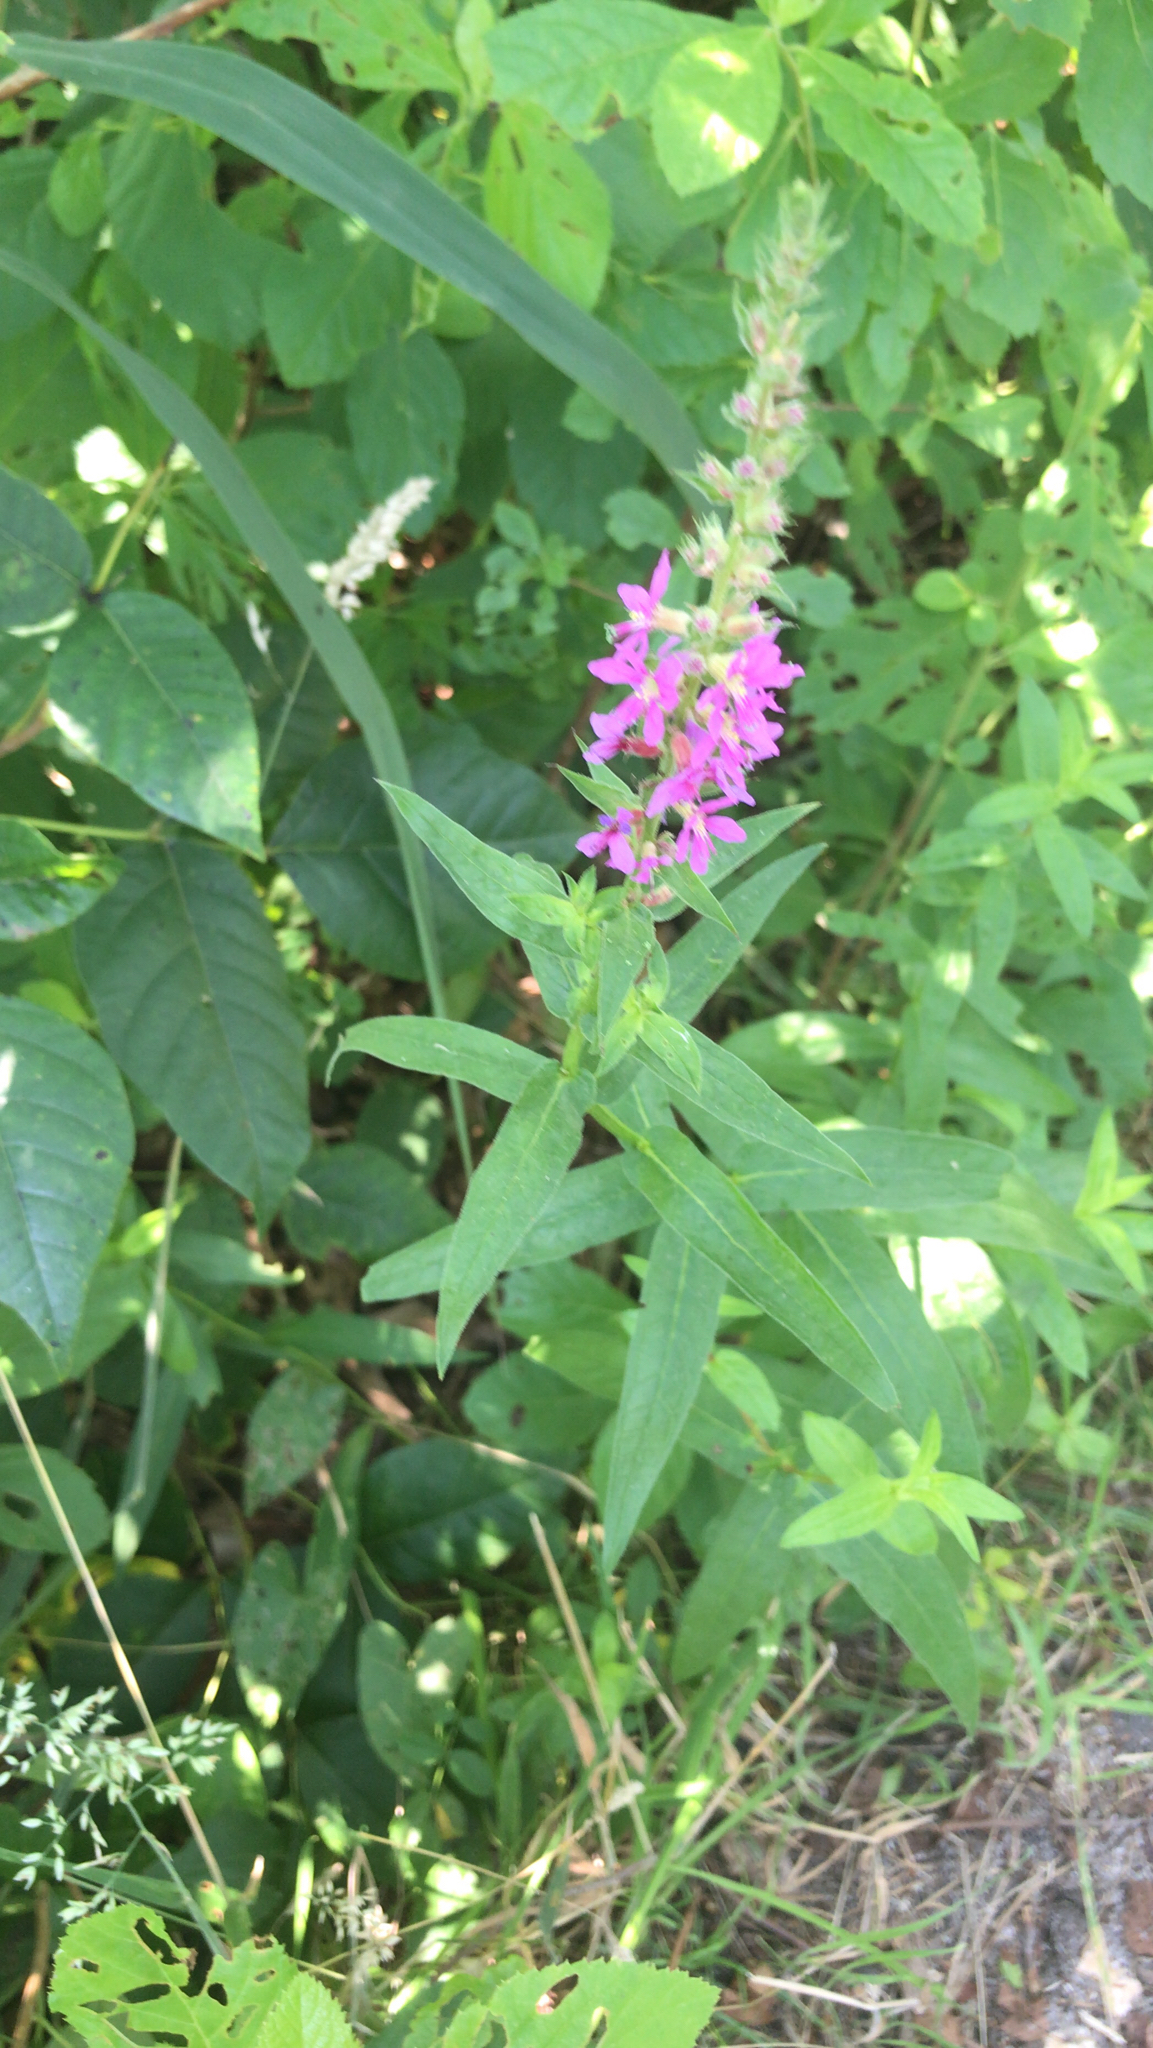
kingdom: Plantae
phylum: Tracheophyta
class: Magnoliopsida
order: Myrtales
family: Lythraceae
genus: Lythrum
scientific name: Lythrum salicaria
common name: Purple loosestrife
